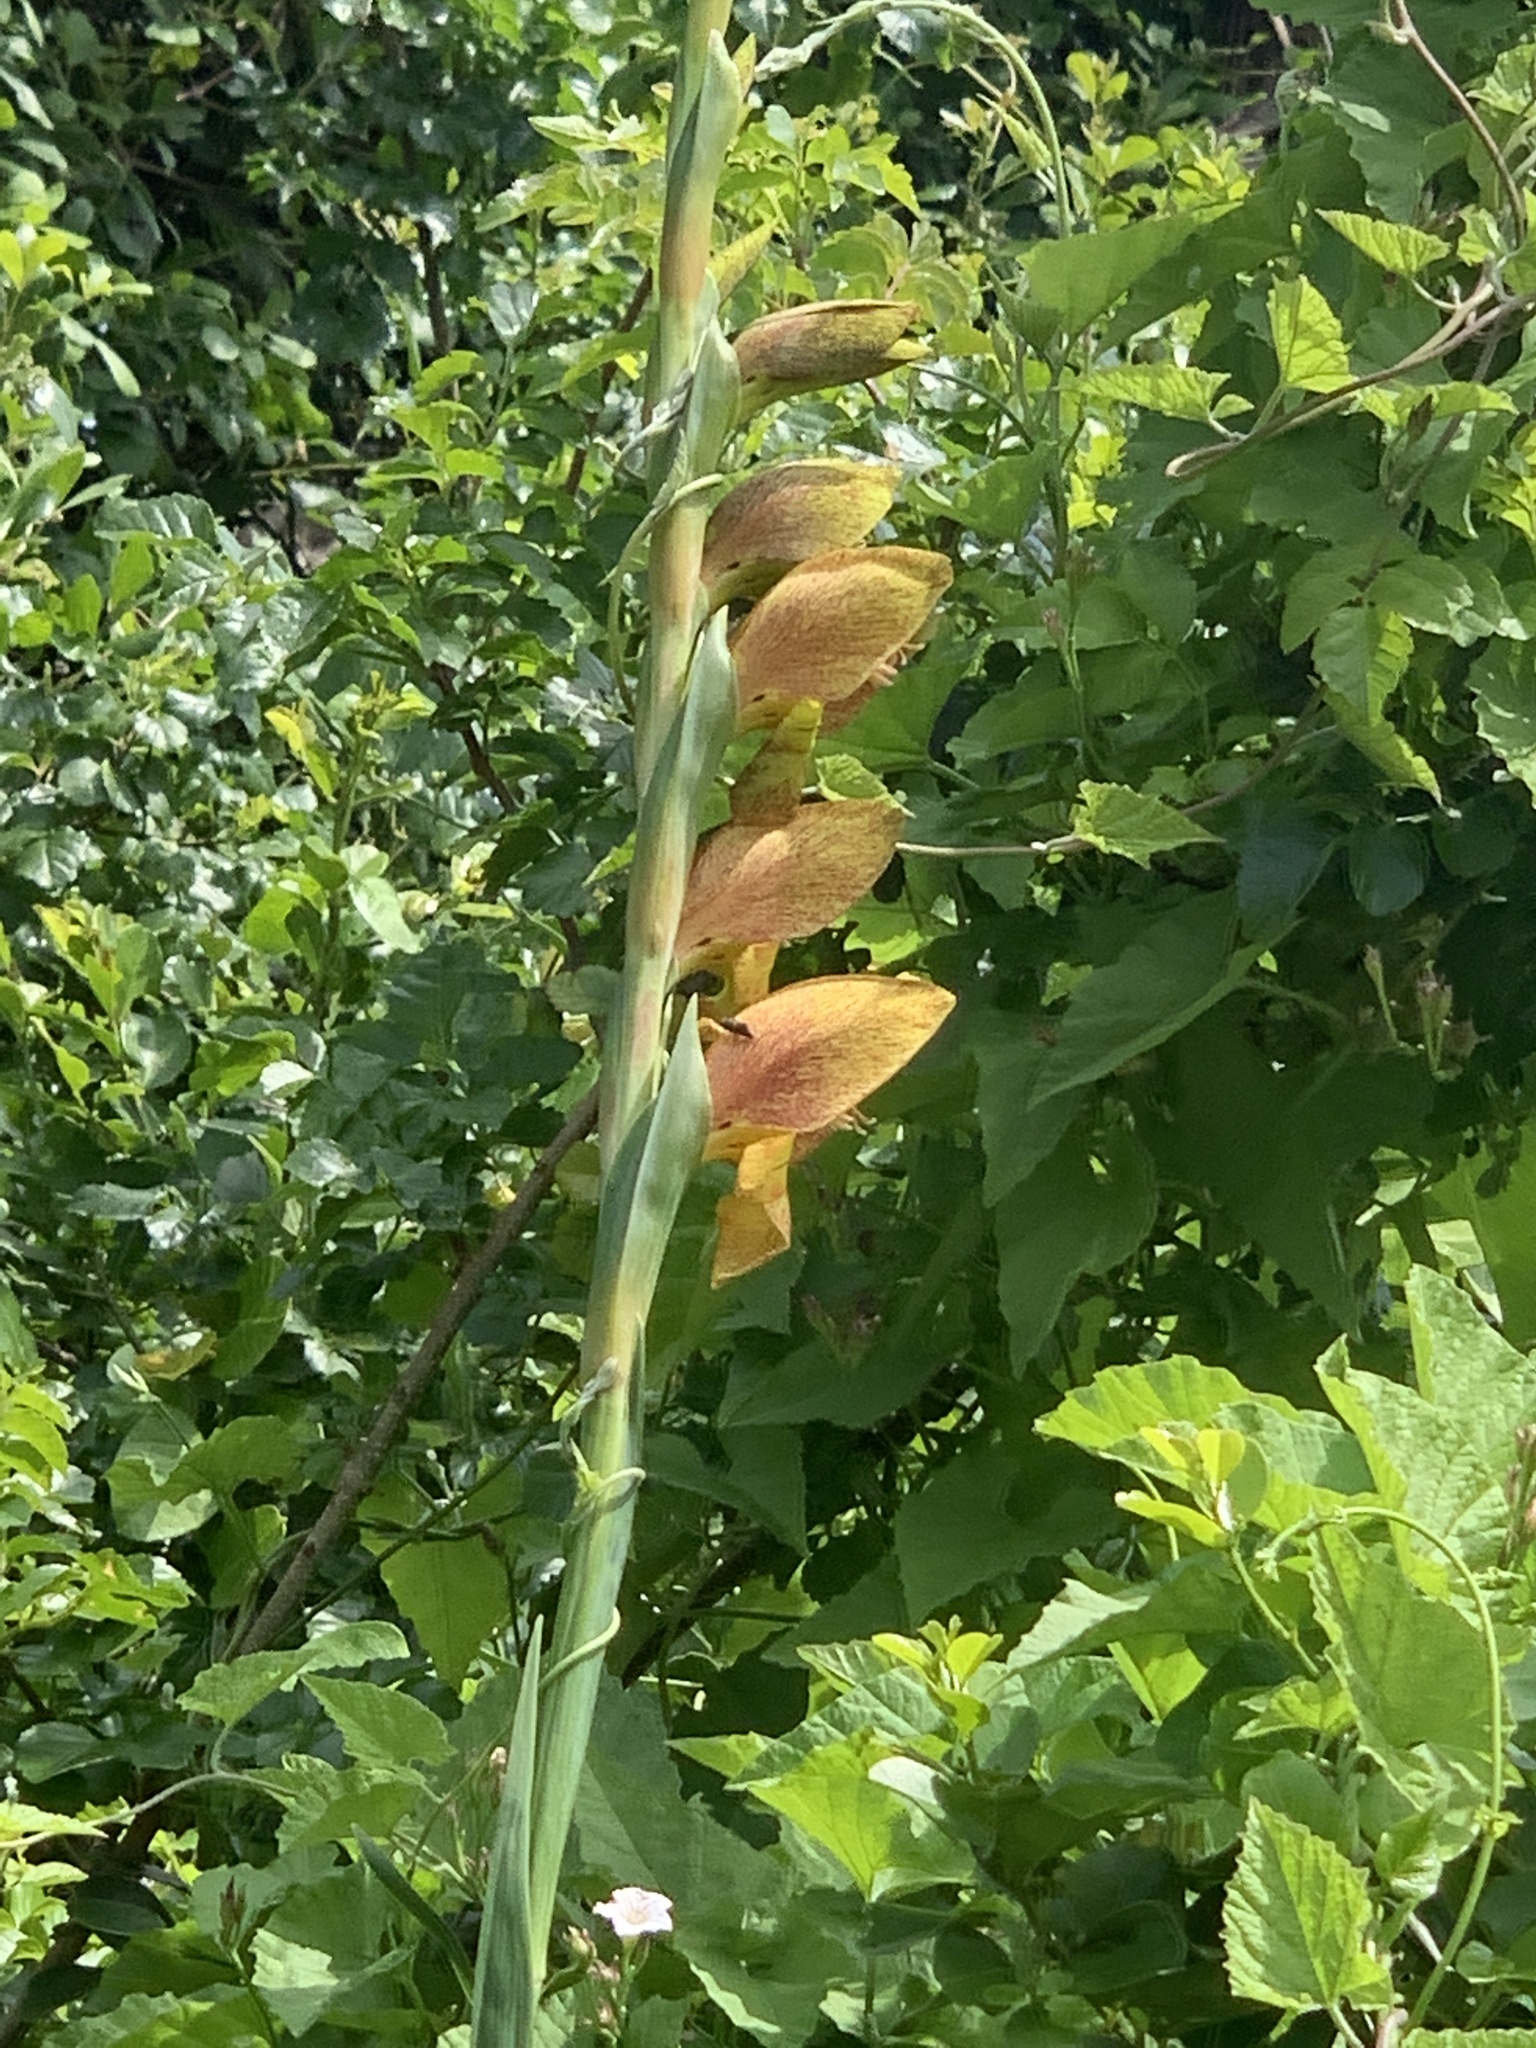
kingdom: Plantae
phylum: Tracheophyta
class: Liliopsida
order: Asparagales
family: Iridaceae
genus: Gladiolus
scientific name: Gladiolus dalenii
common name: Cornflag
